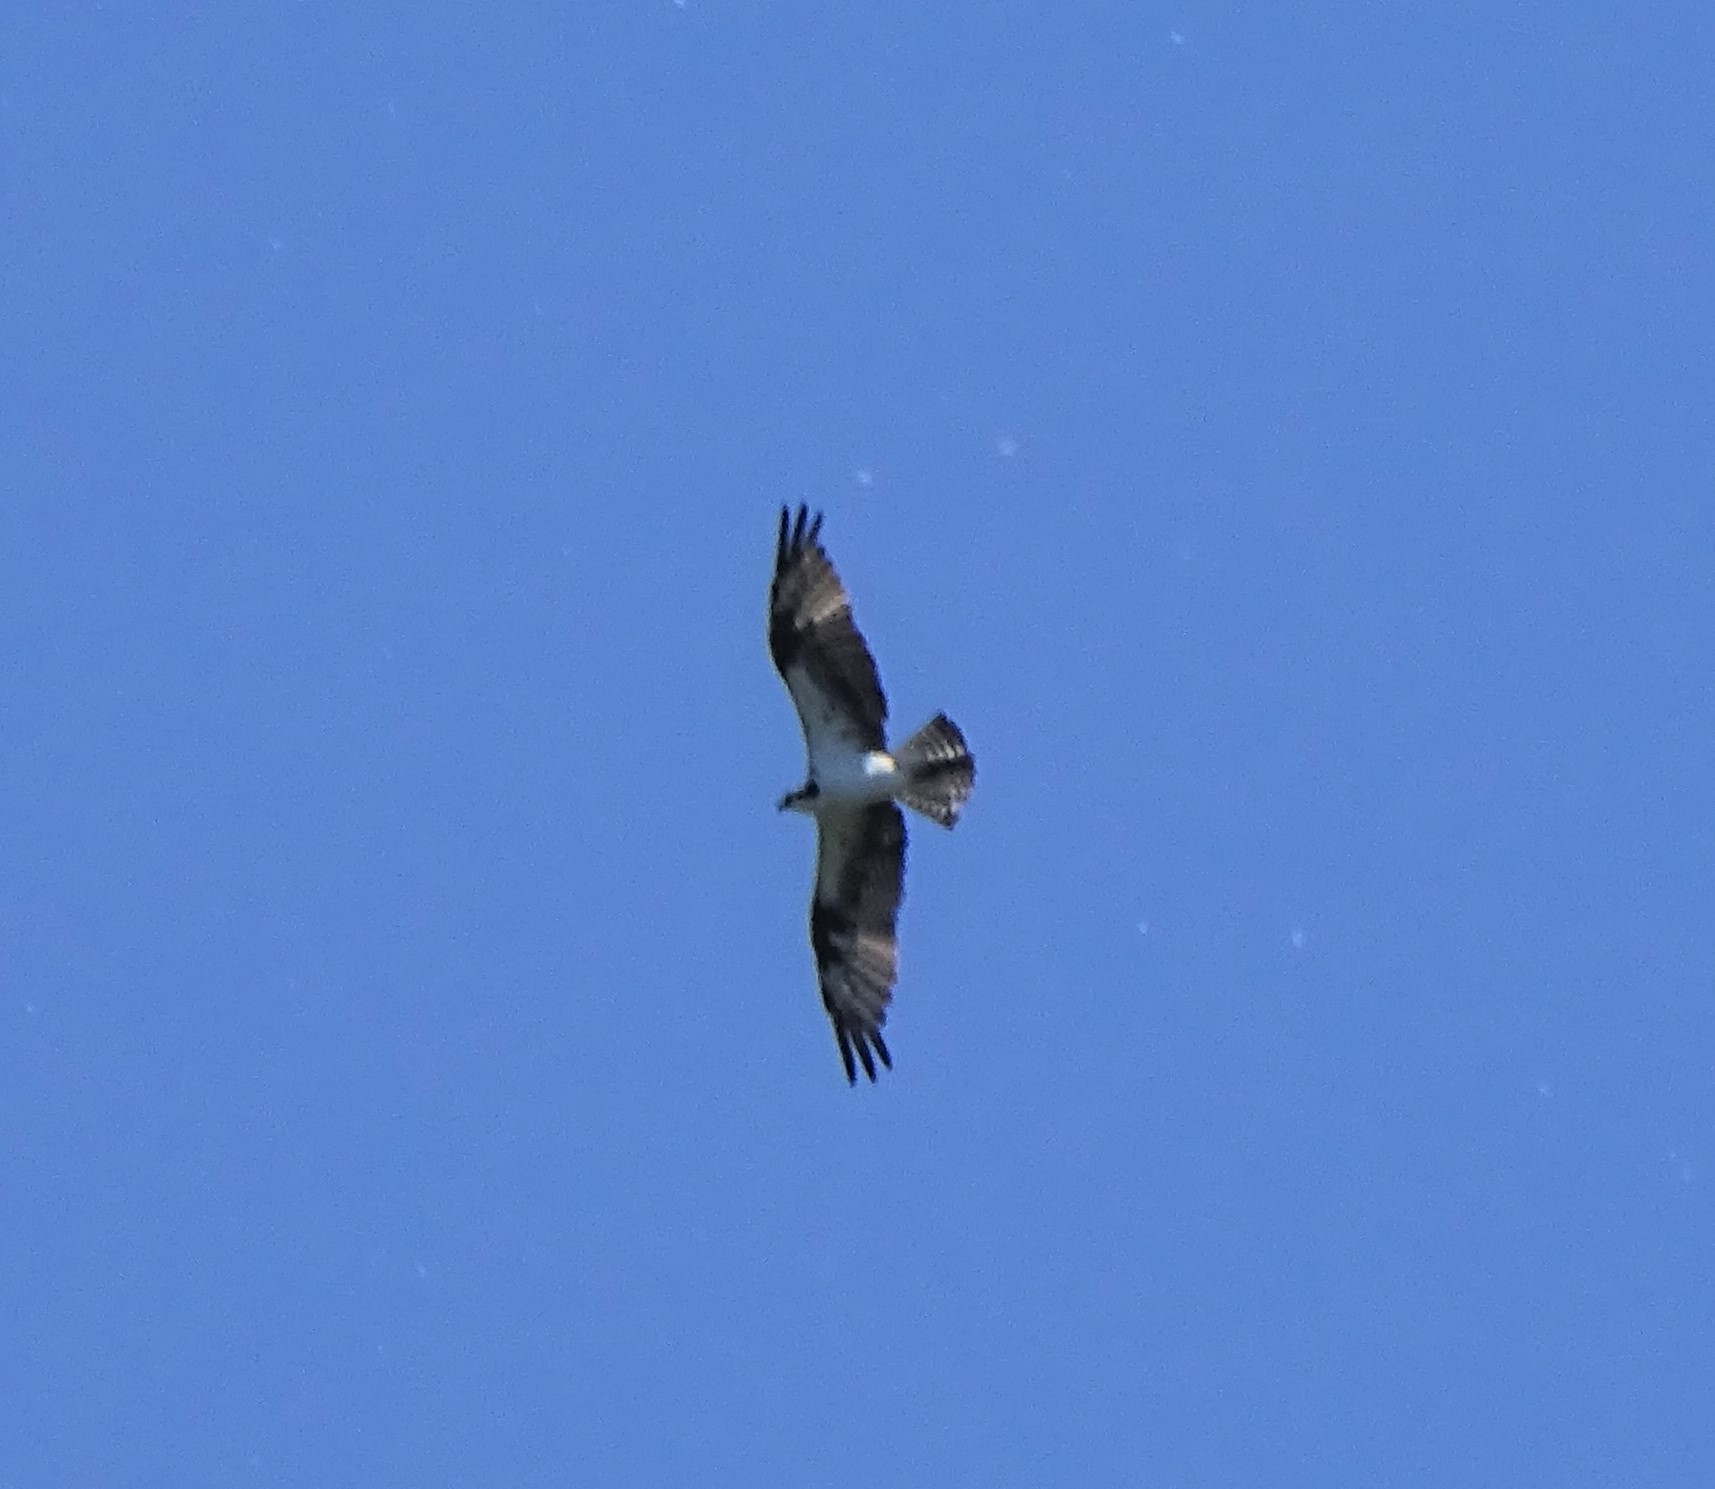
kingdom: Animalia
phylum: Chordata
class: Aves
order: Accipitriformes
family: Pandionidae
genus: Pandion
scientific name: Pandion haliaetus
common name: Osprey
